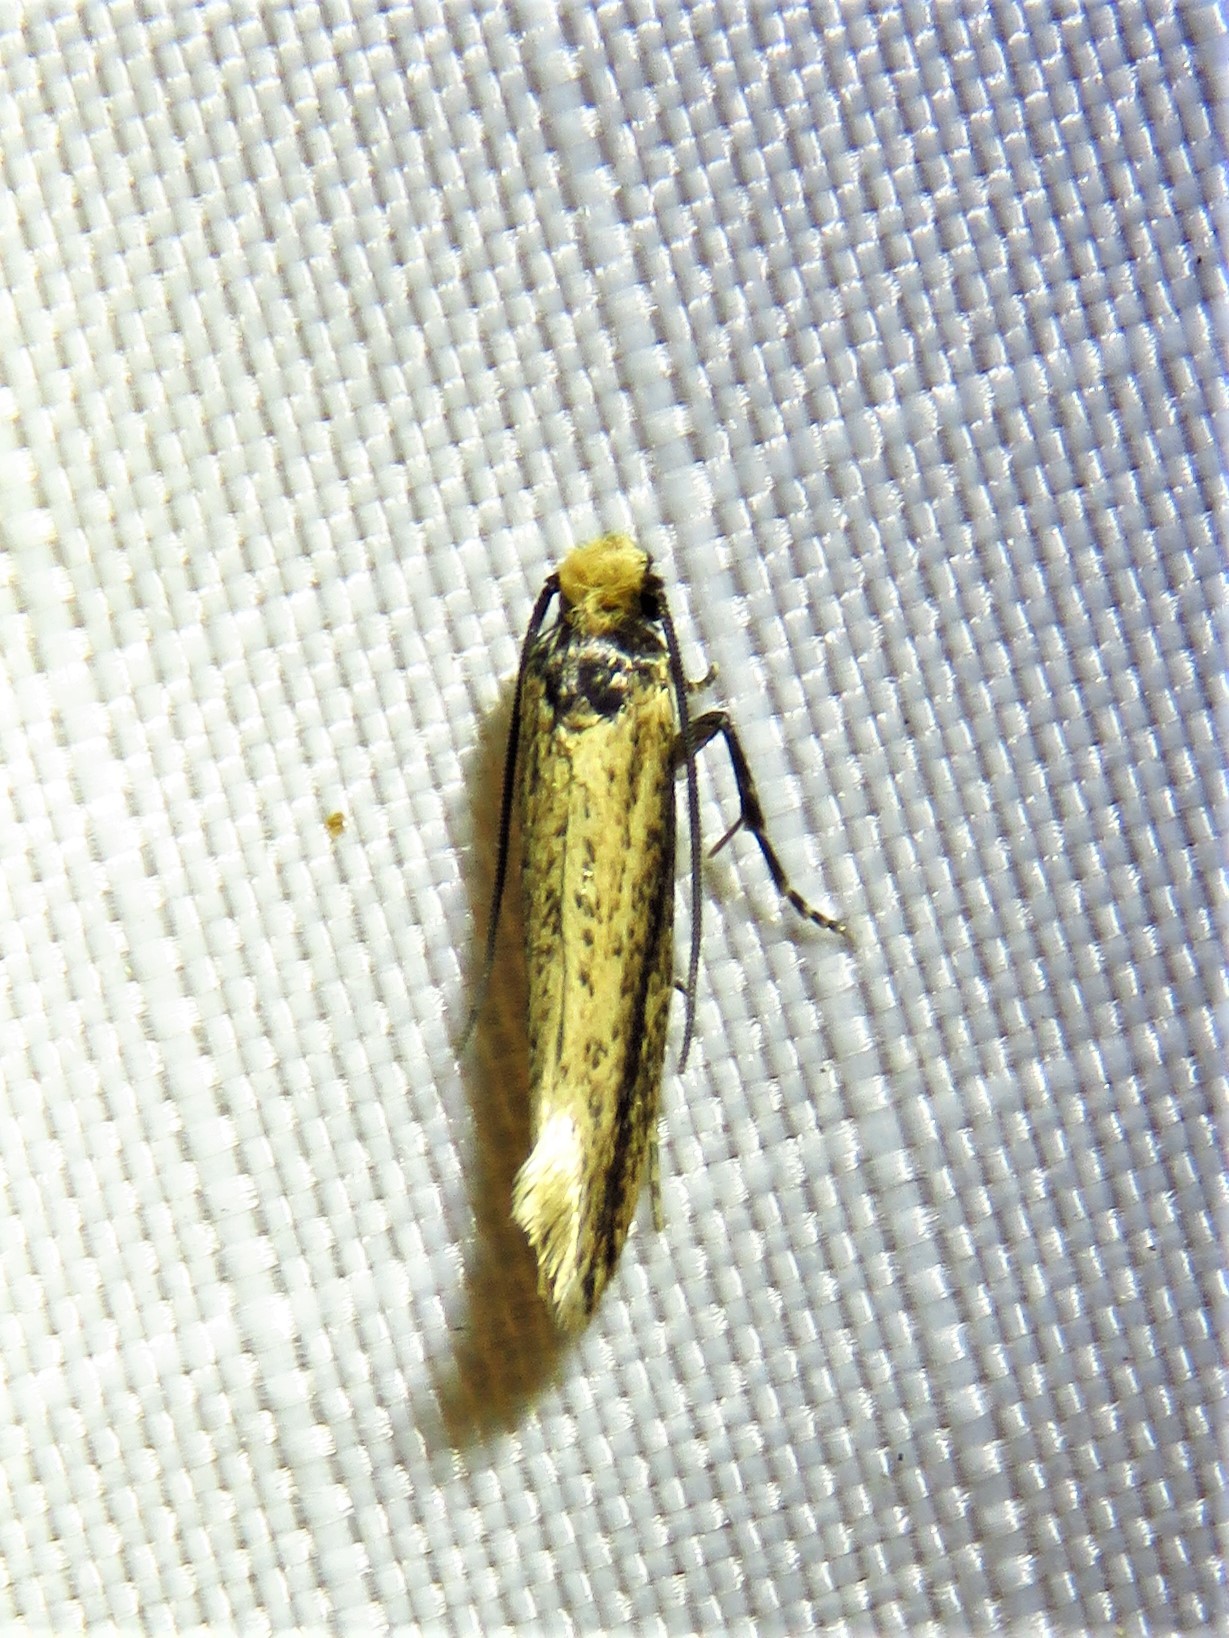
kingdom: Animalia
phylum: Arthropoda
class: Insecta
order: Lepidoptera
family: Meessiidae
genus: Homostinea
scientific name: Homostinea curviliniella
